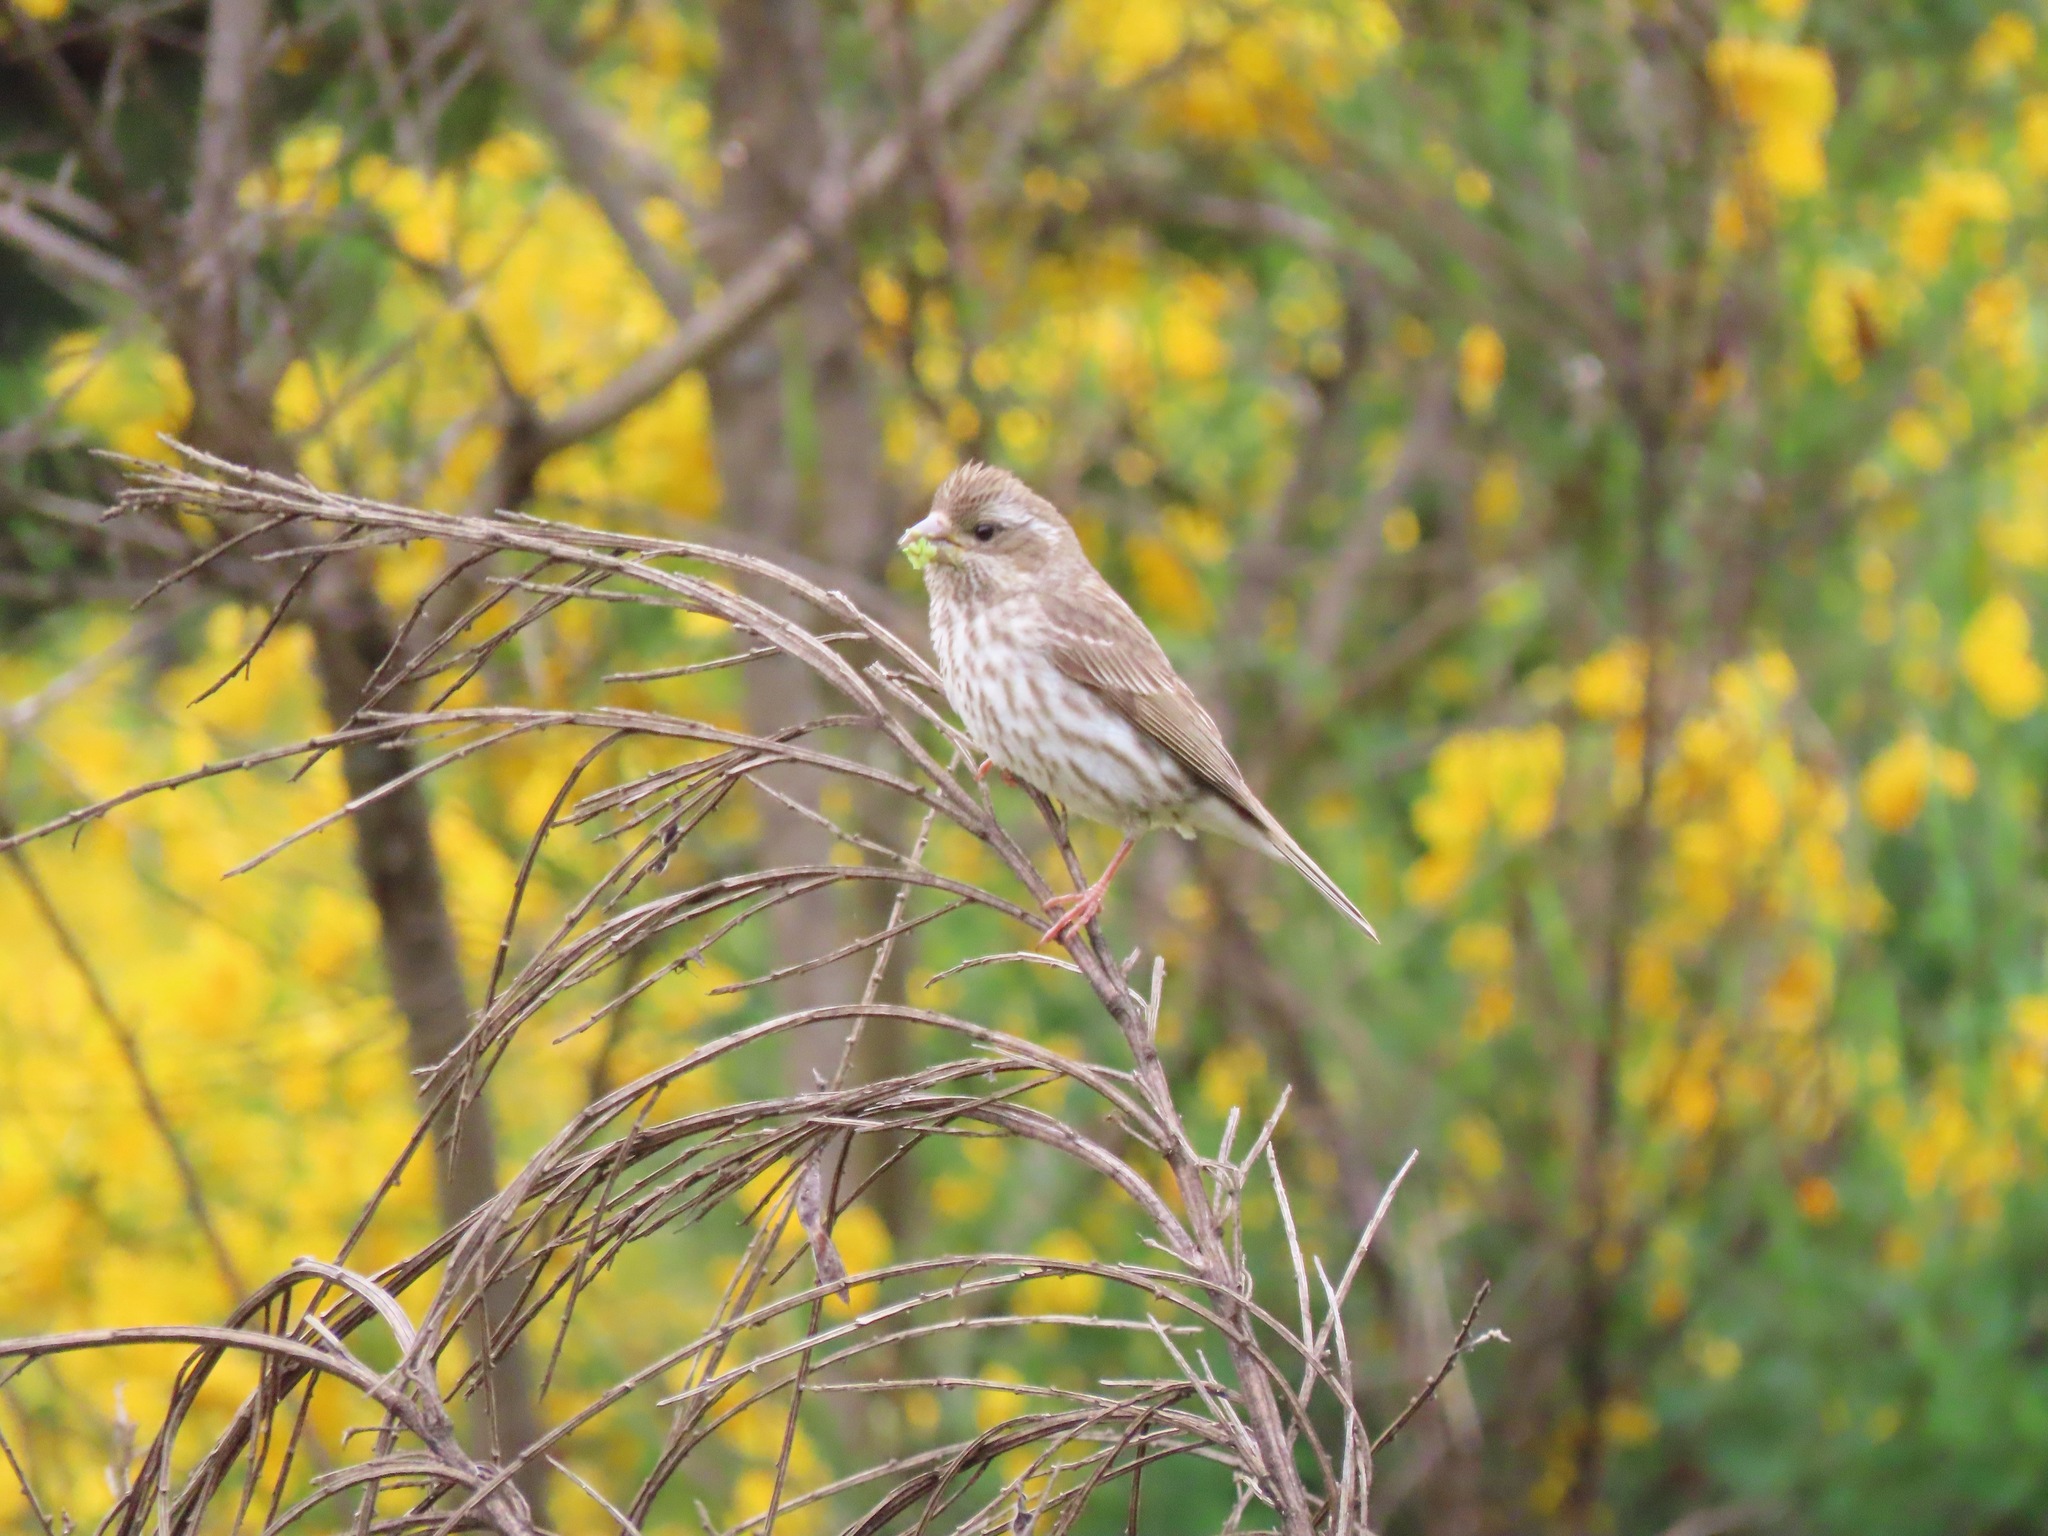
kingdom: Animalia
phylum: Chordata
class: Aves
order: Passeriformes
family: Fringillidae
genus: Haemorhous
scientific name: Haemorhous purpureus
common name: Purple finch
